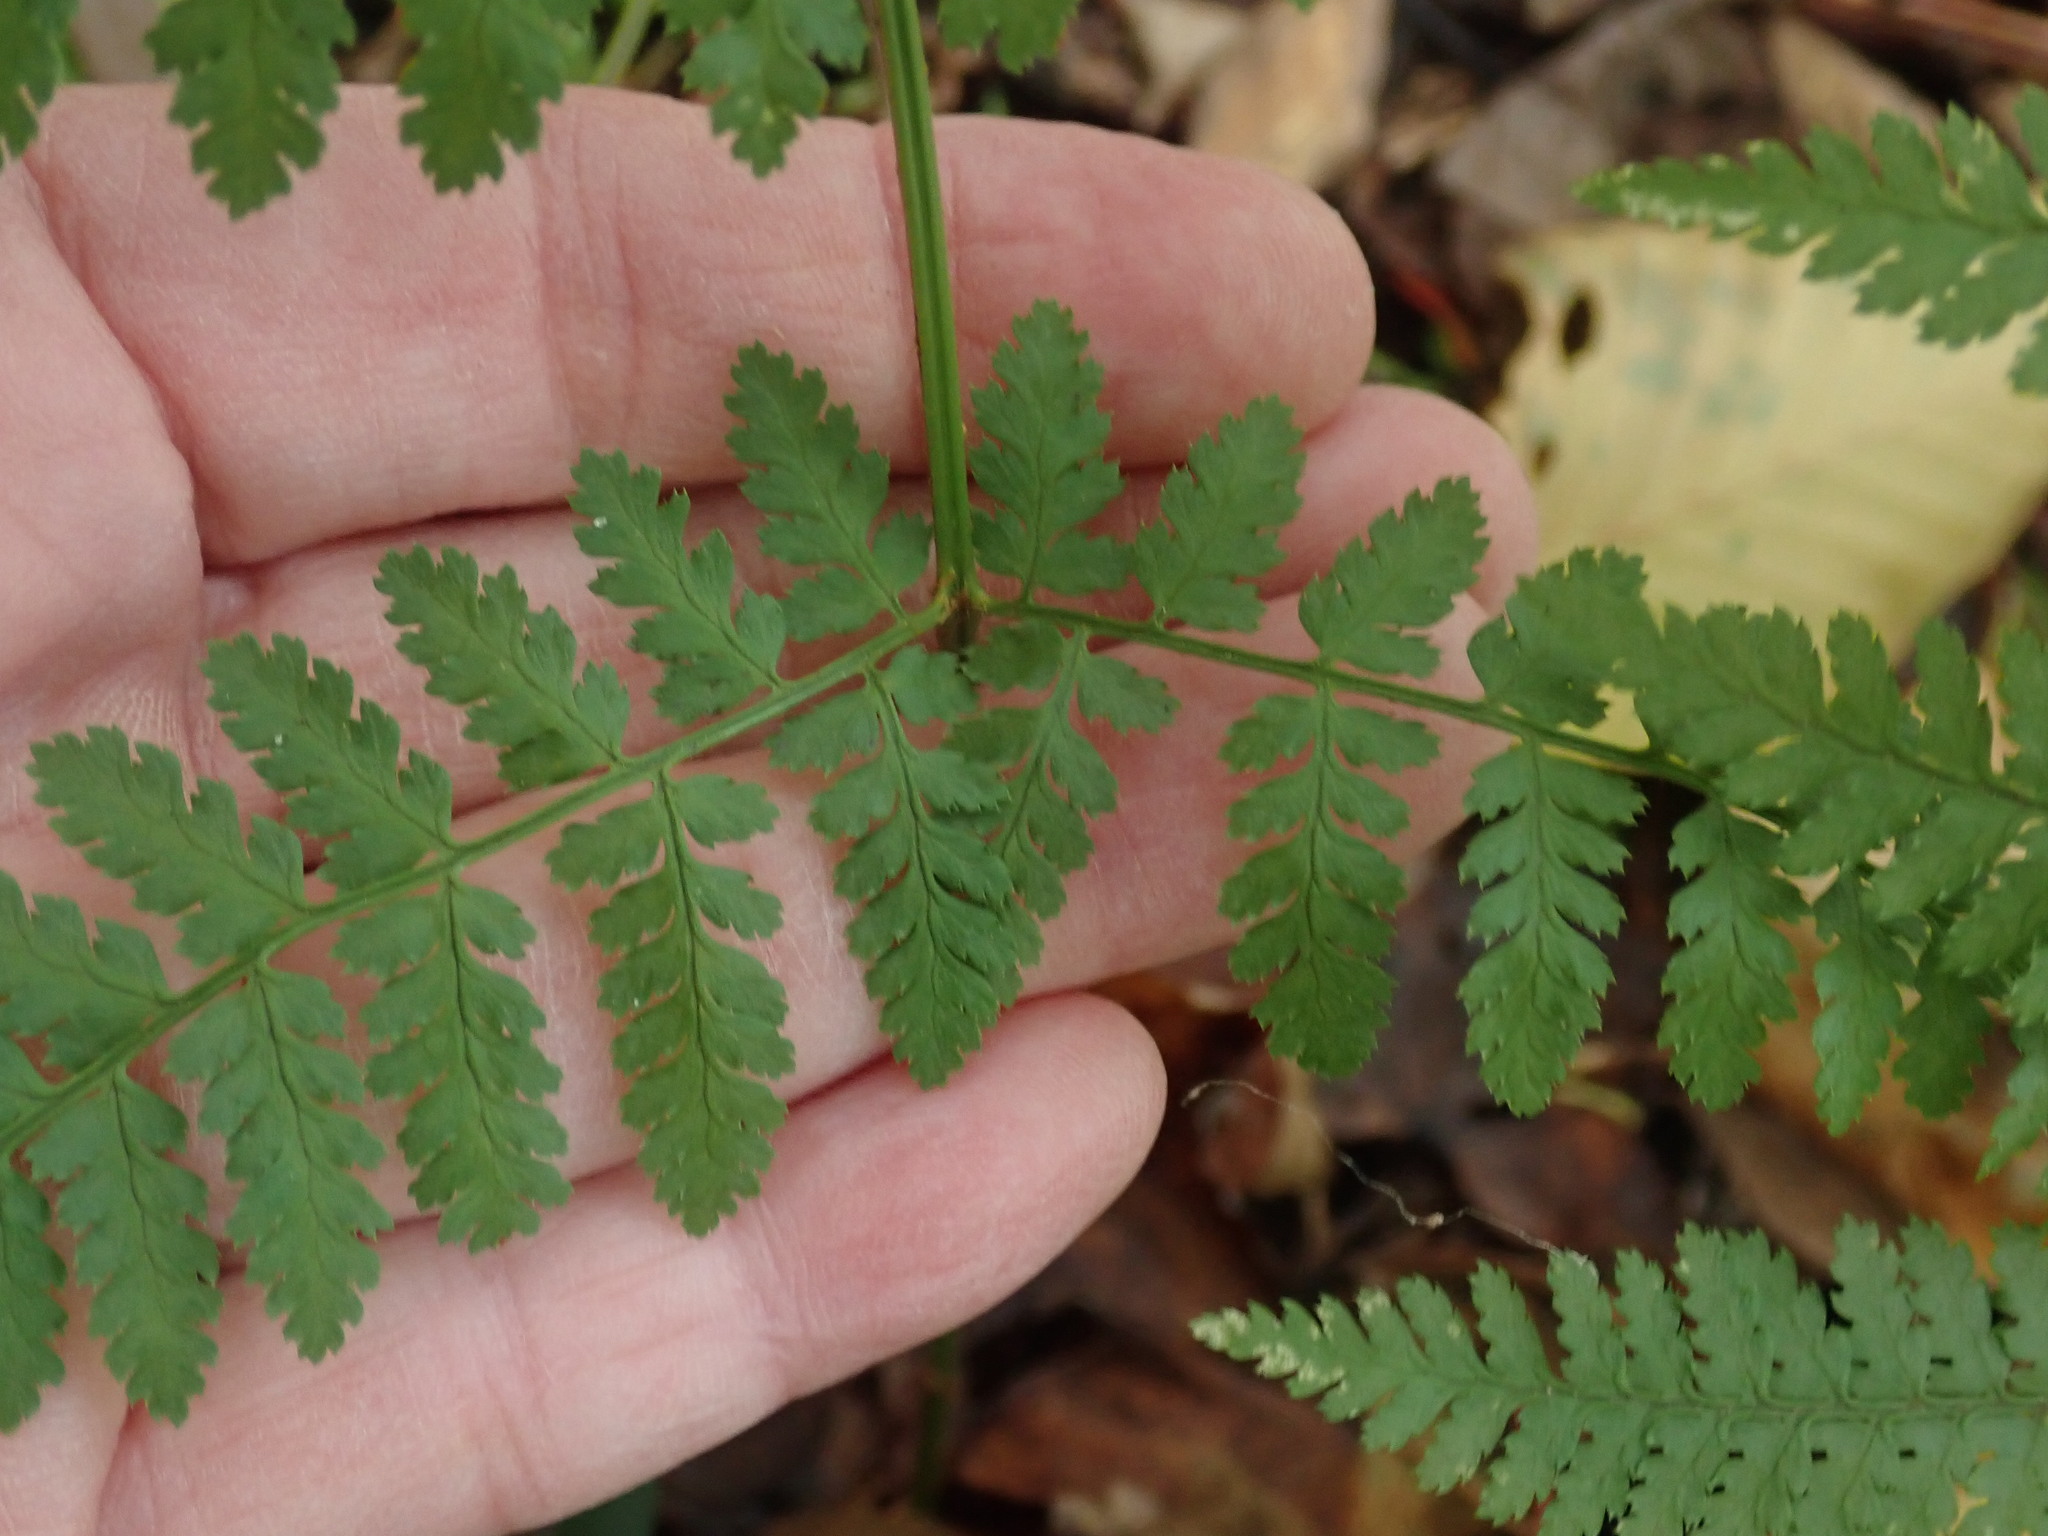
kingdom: Plantae
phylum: Tracheophyta
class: Polypodiopsida
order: Polypodiales
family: Dryopteridaceae
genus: Dryopteris
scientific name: Dryopteris intermedia
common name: Evergreen wood fern
